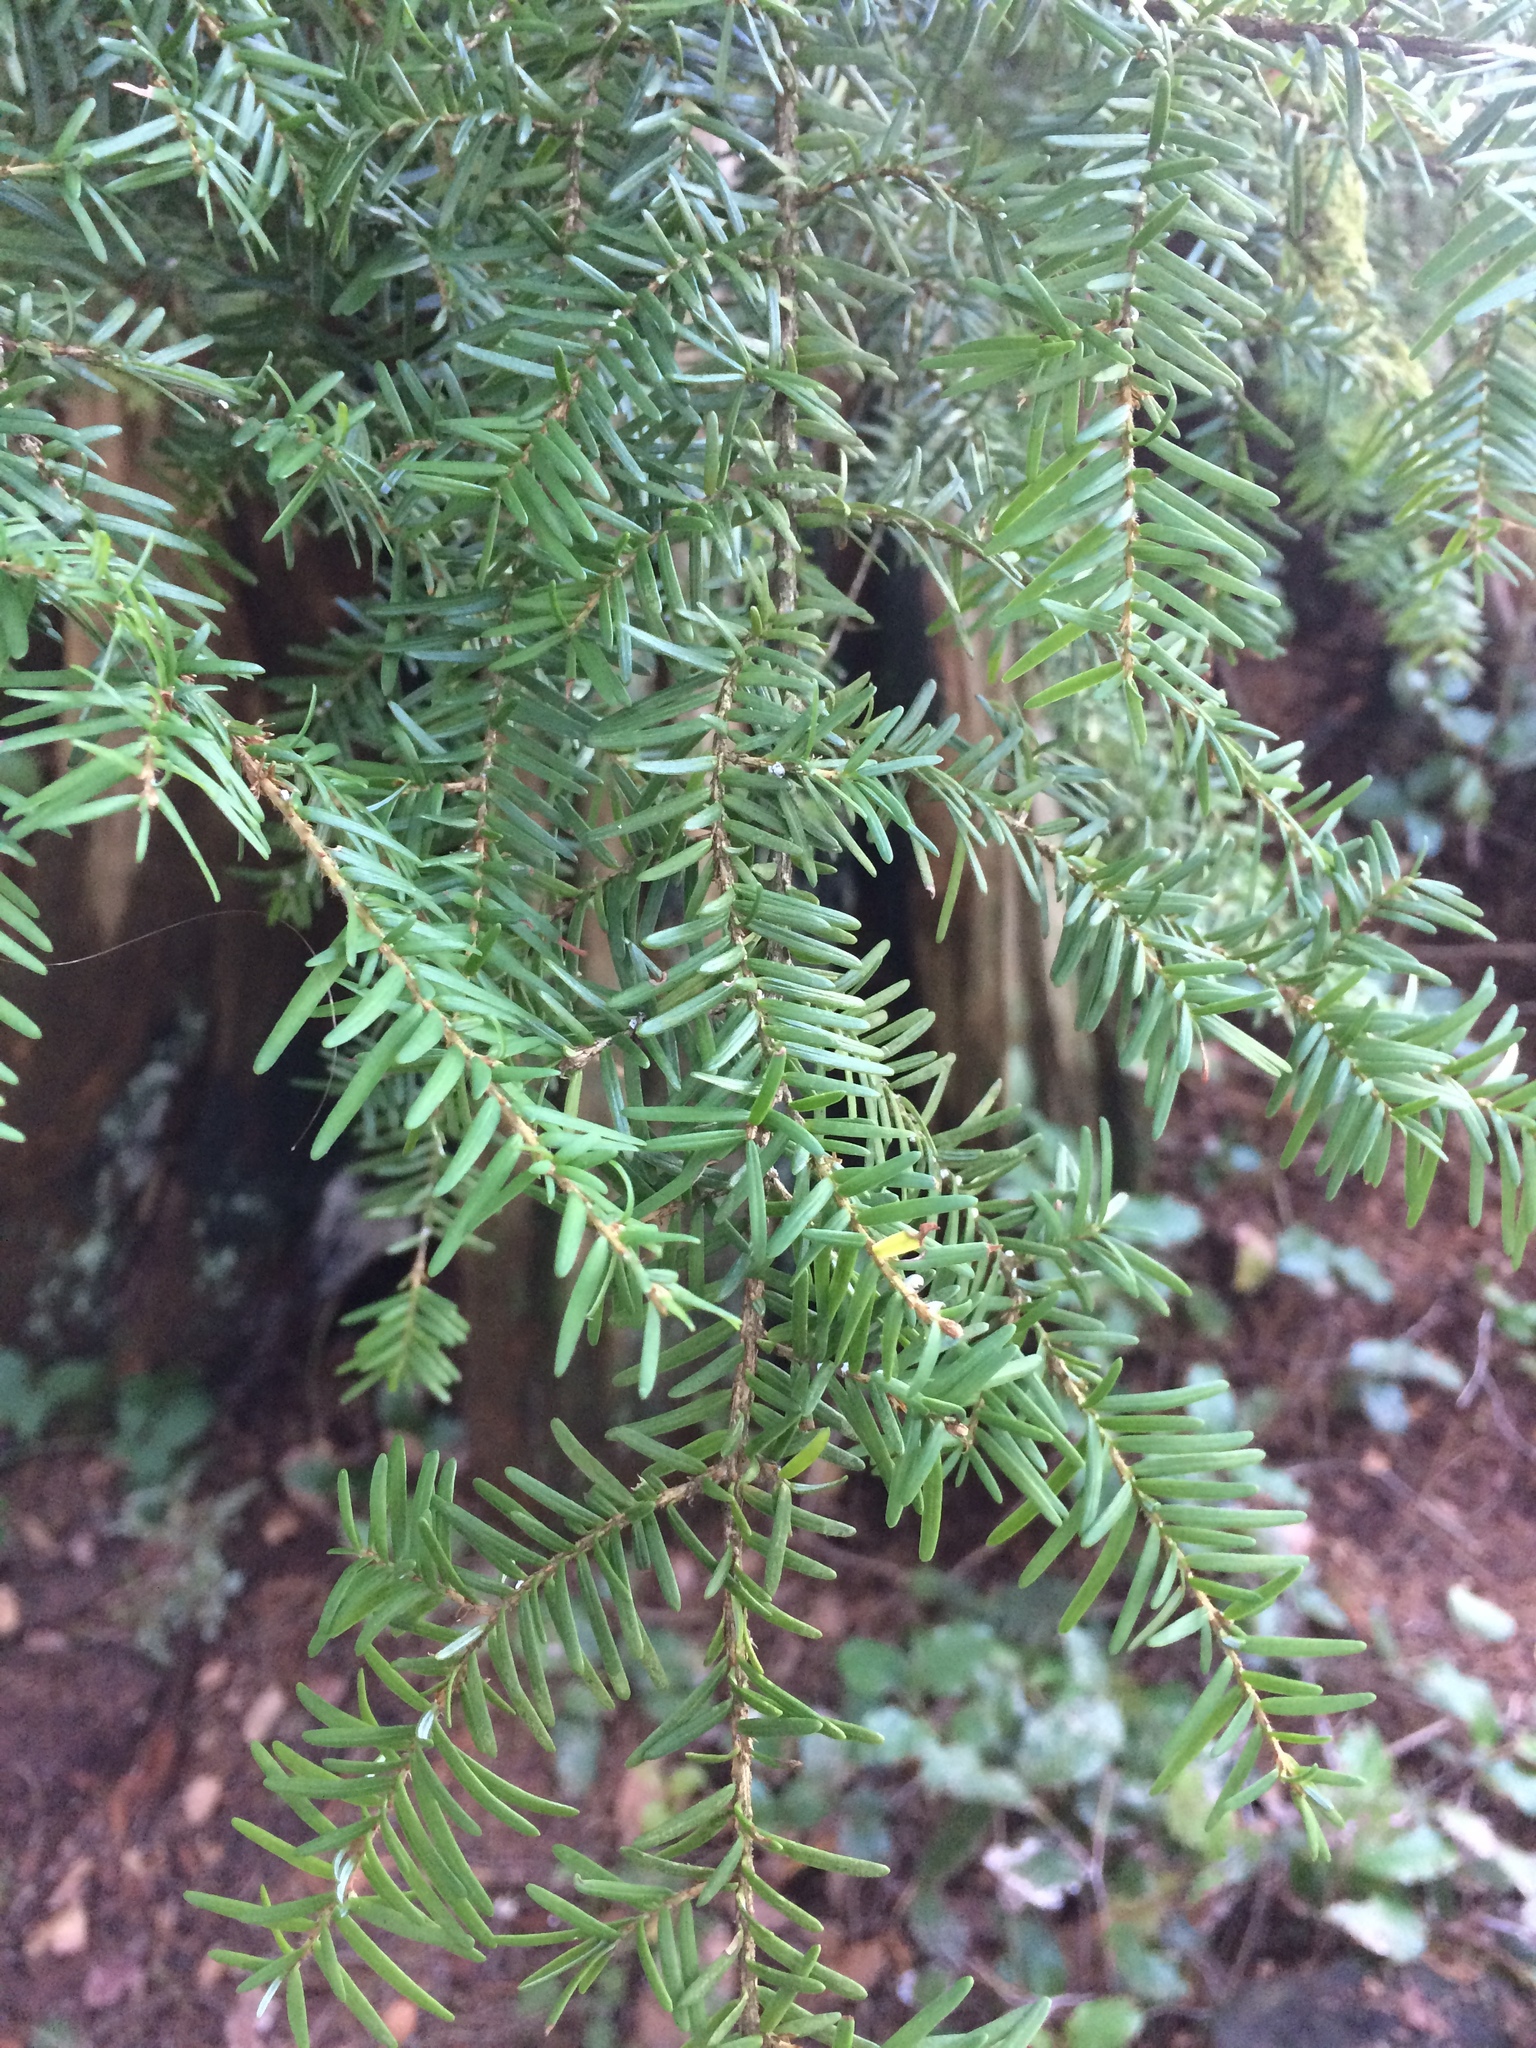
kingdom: Plantae
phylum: Tracheophyta
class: Pinopsida
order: Pinales
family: Pinaceae
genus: Tsuga
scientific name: Tsuga heterophylla
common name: Western hemlock
